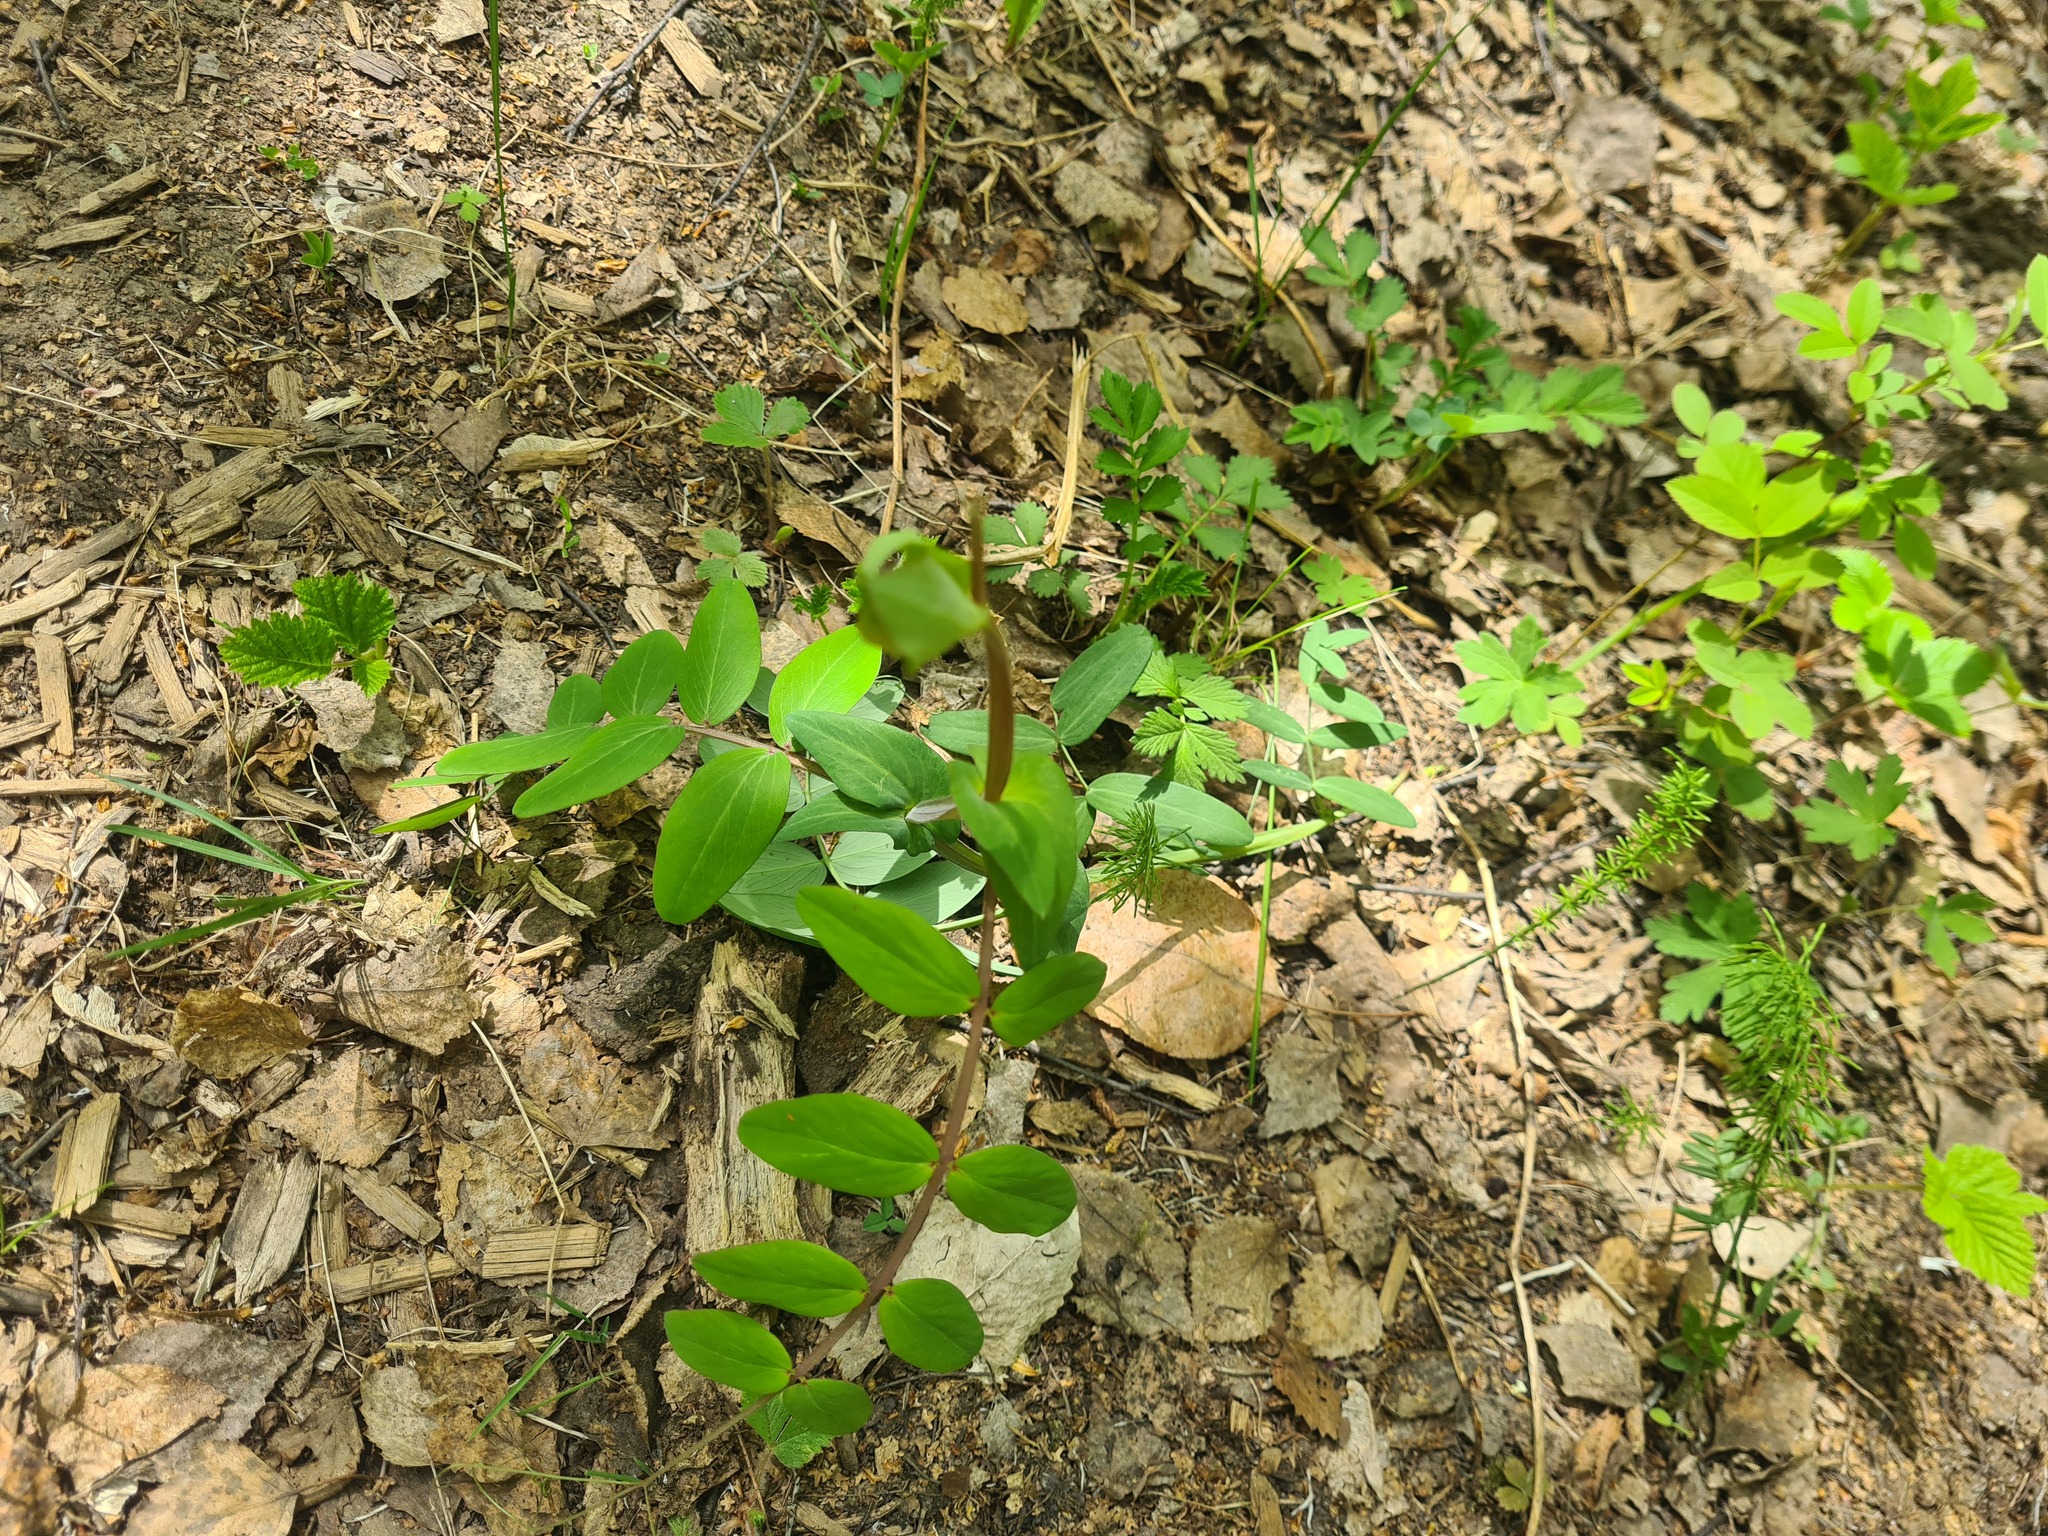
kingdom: Plantae
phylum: Tracheophyta
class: Magnoliopsida
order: Fabales
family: Fabaceae
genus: Lathyrus
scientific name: Lathyrus pisiformis
